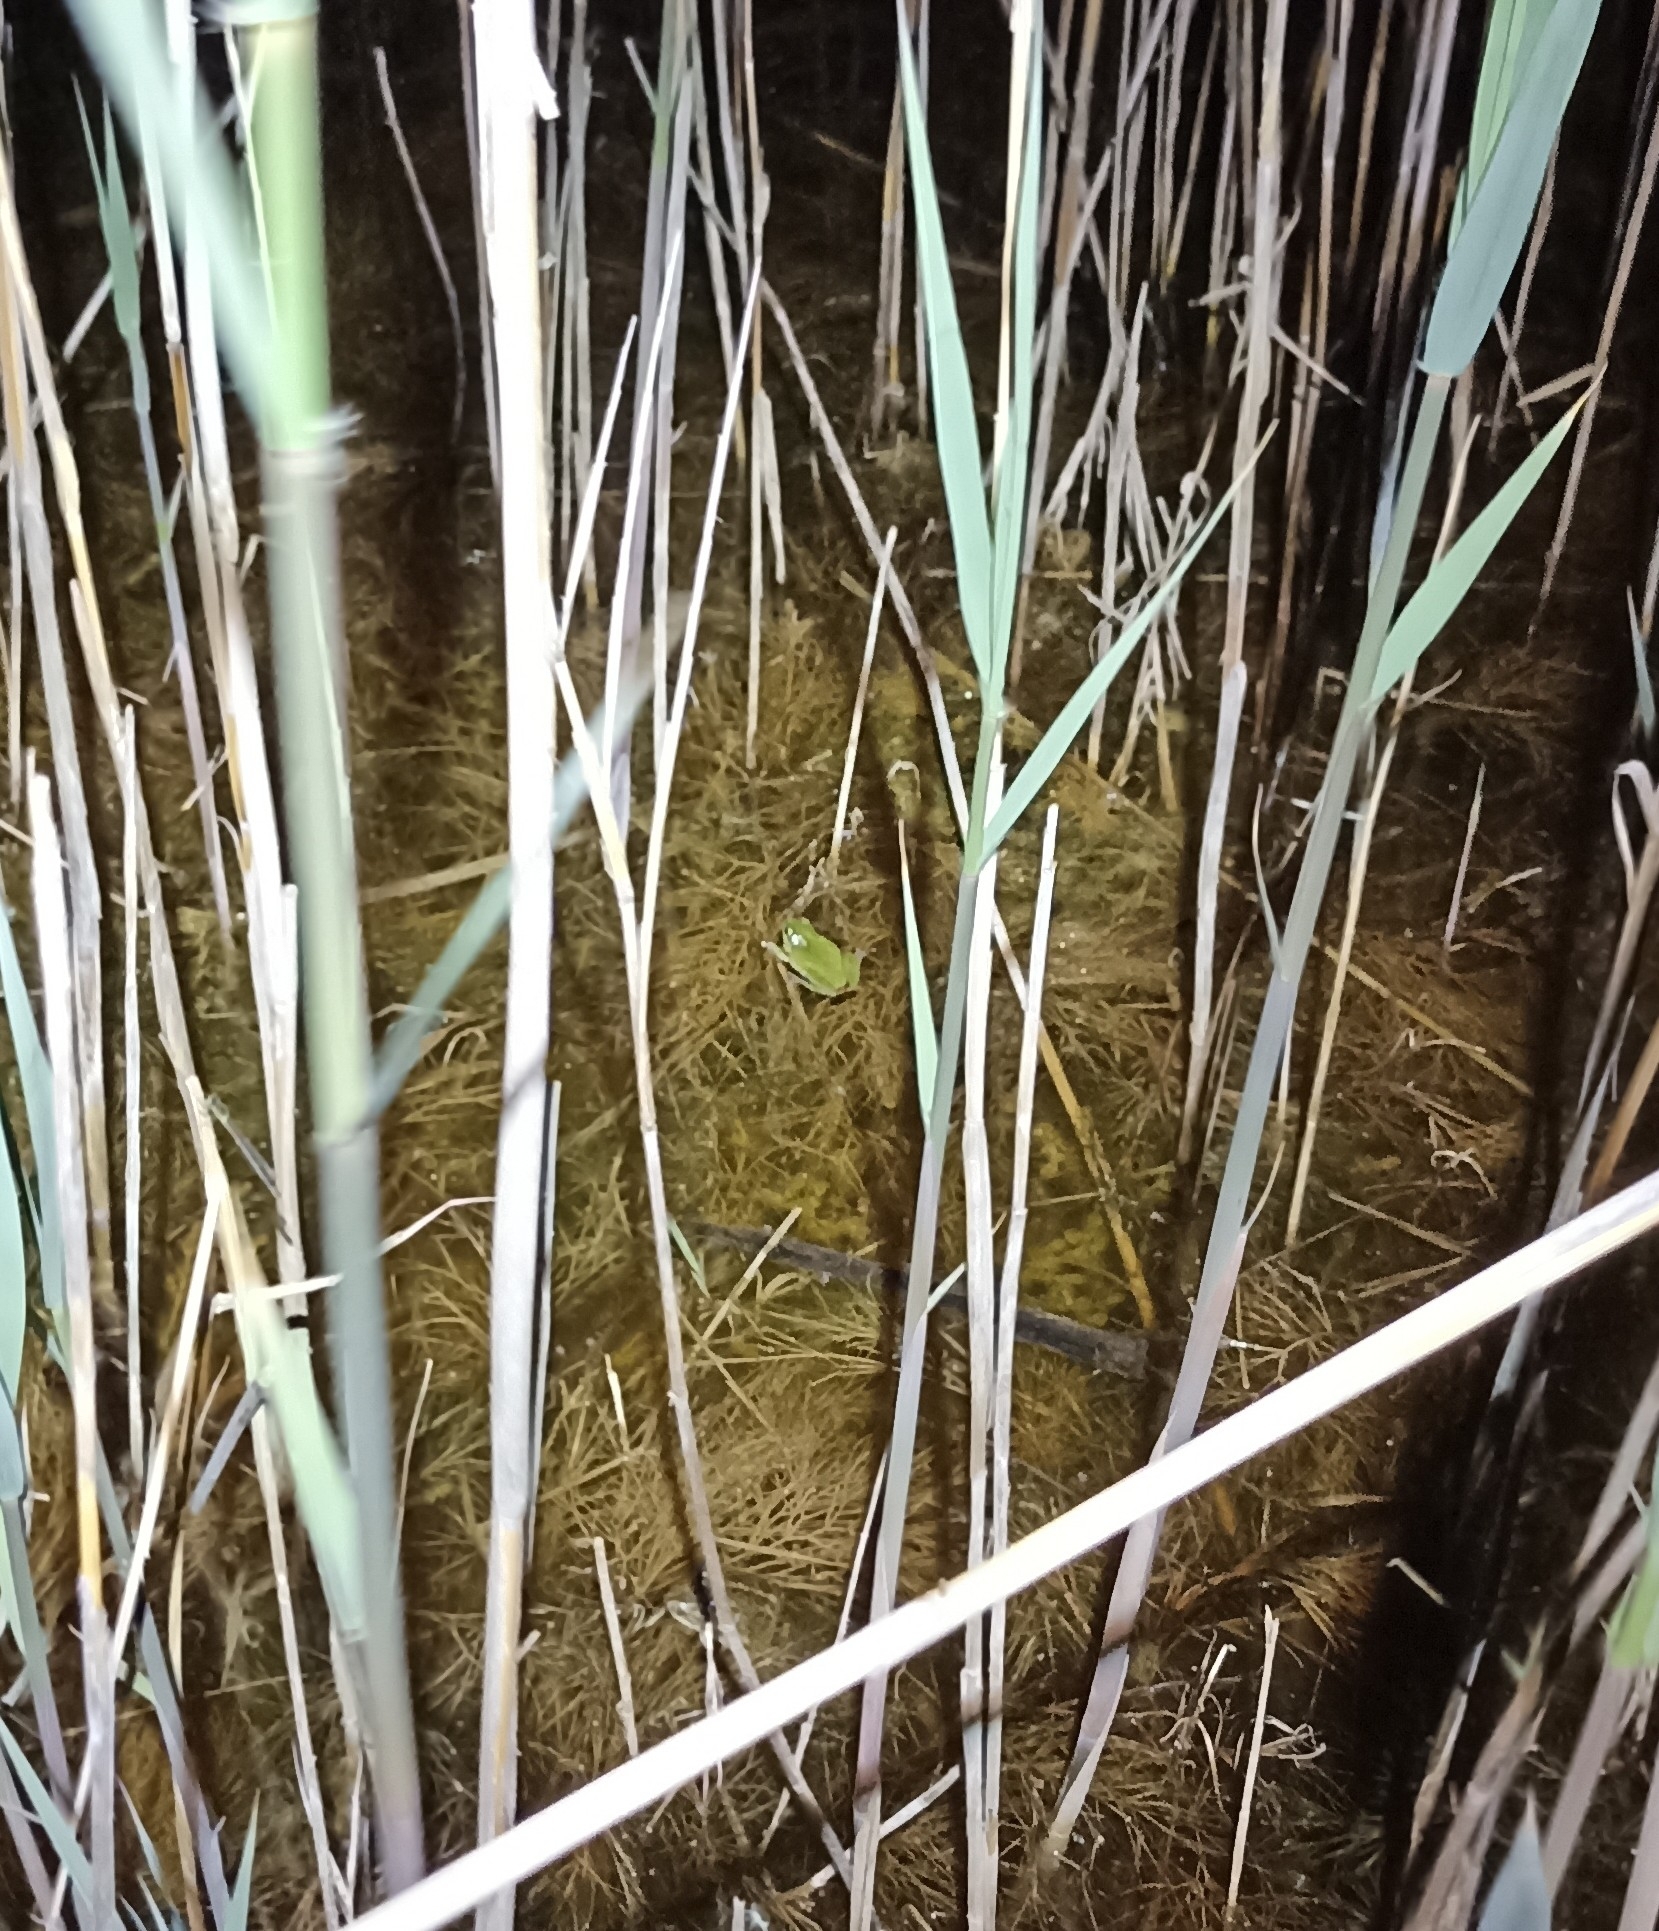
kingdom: Animalia
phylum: Chordata
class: Amphibia
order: Anura
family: Hylidae
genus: Hyla
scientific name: Hyla meridionalis
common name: Stripeless tree frog
